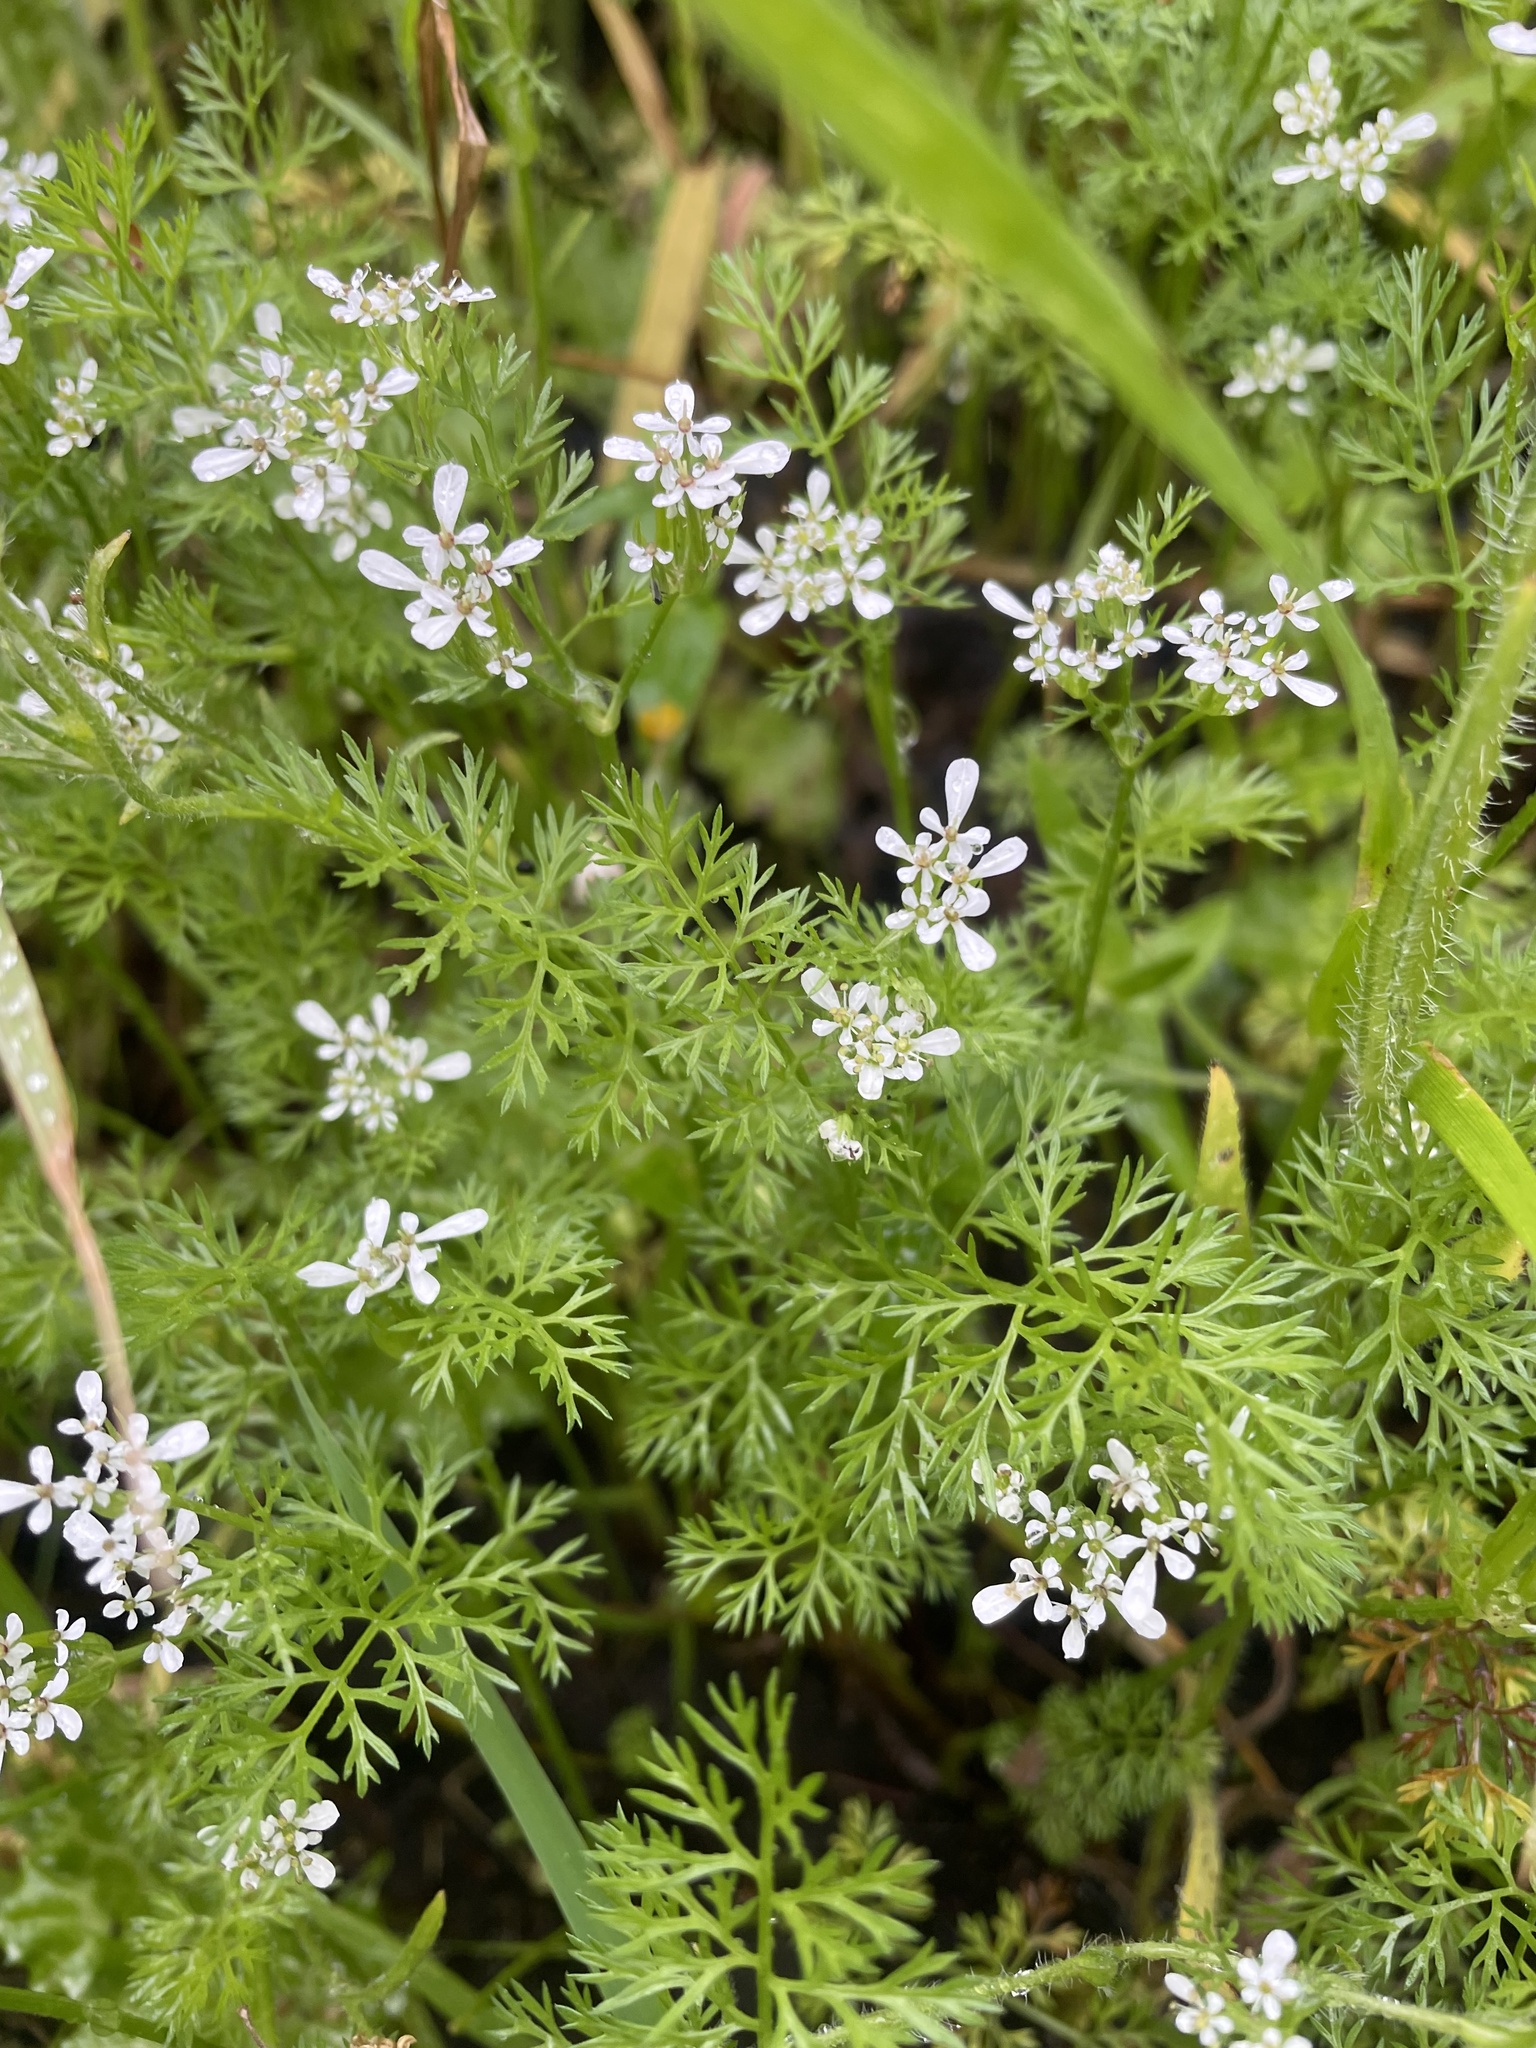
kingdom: Plantae
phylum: Tracheophyta
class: Magnoliopsida
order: Apiales
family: Apiaceae
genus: Scandix
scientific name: Scandix pecten-veneris
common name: Shepherd's-needle
